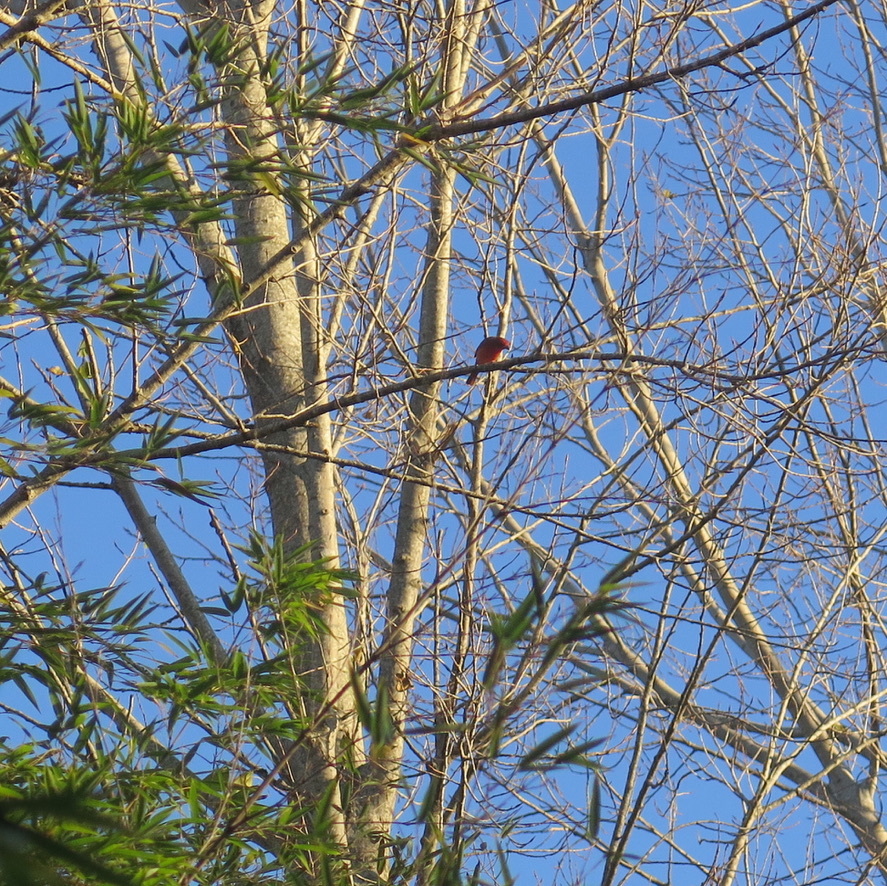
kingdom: Animalia
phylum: Chordata
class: Aves
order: Passeriformes
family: Cardinalidae
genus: Piranga
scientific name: Piranga flava
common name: Red tanager
